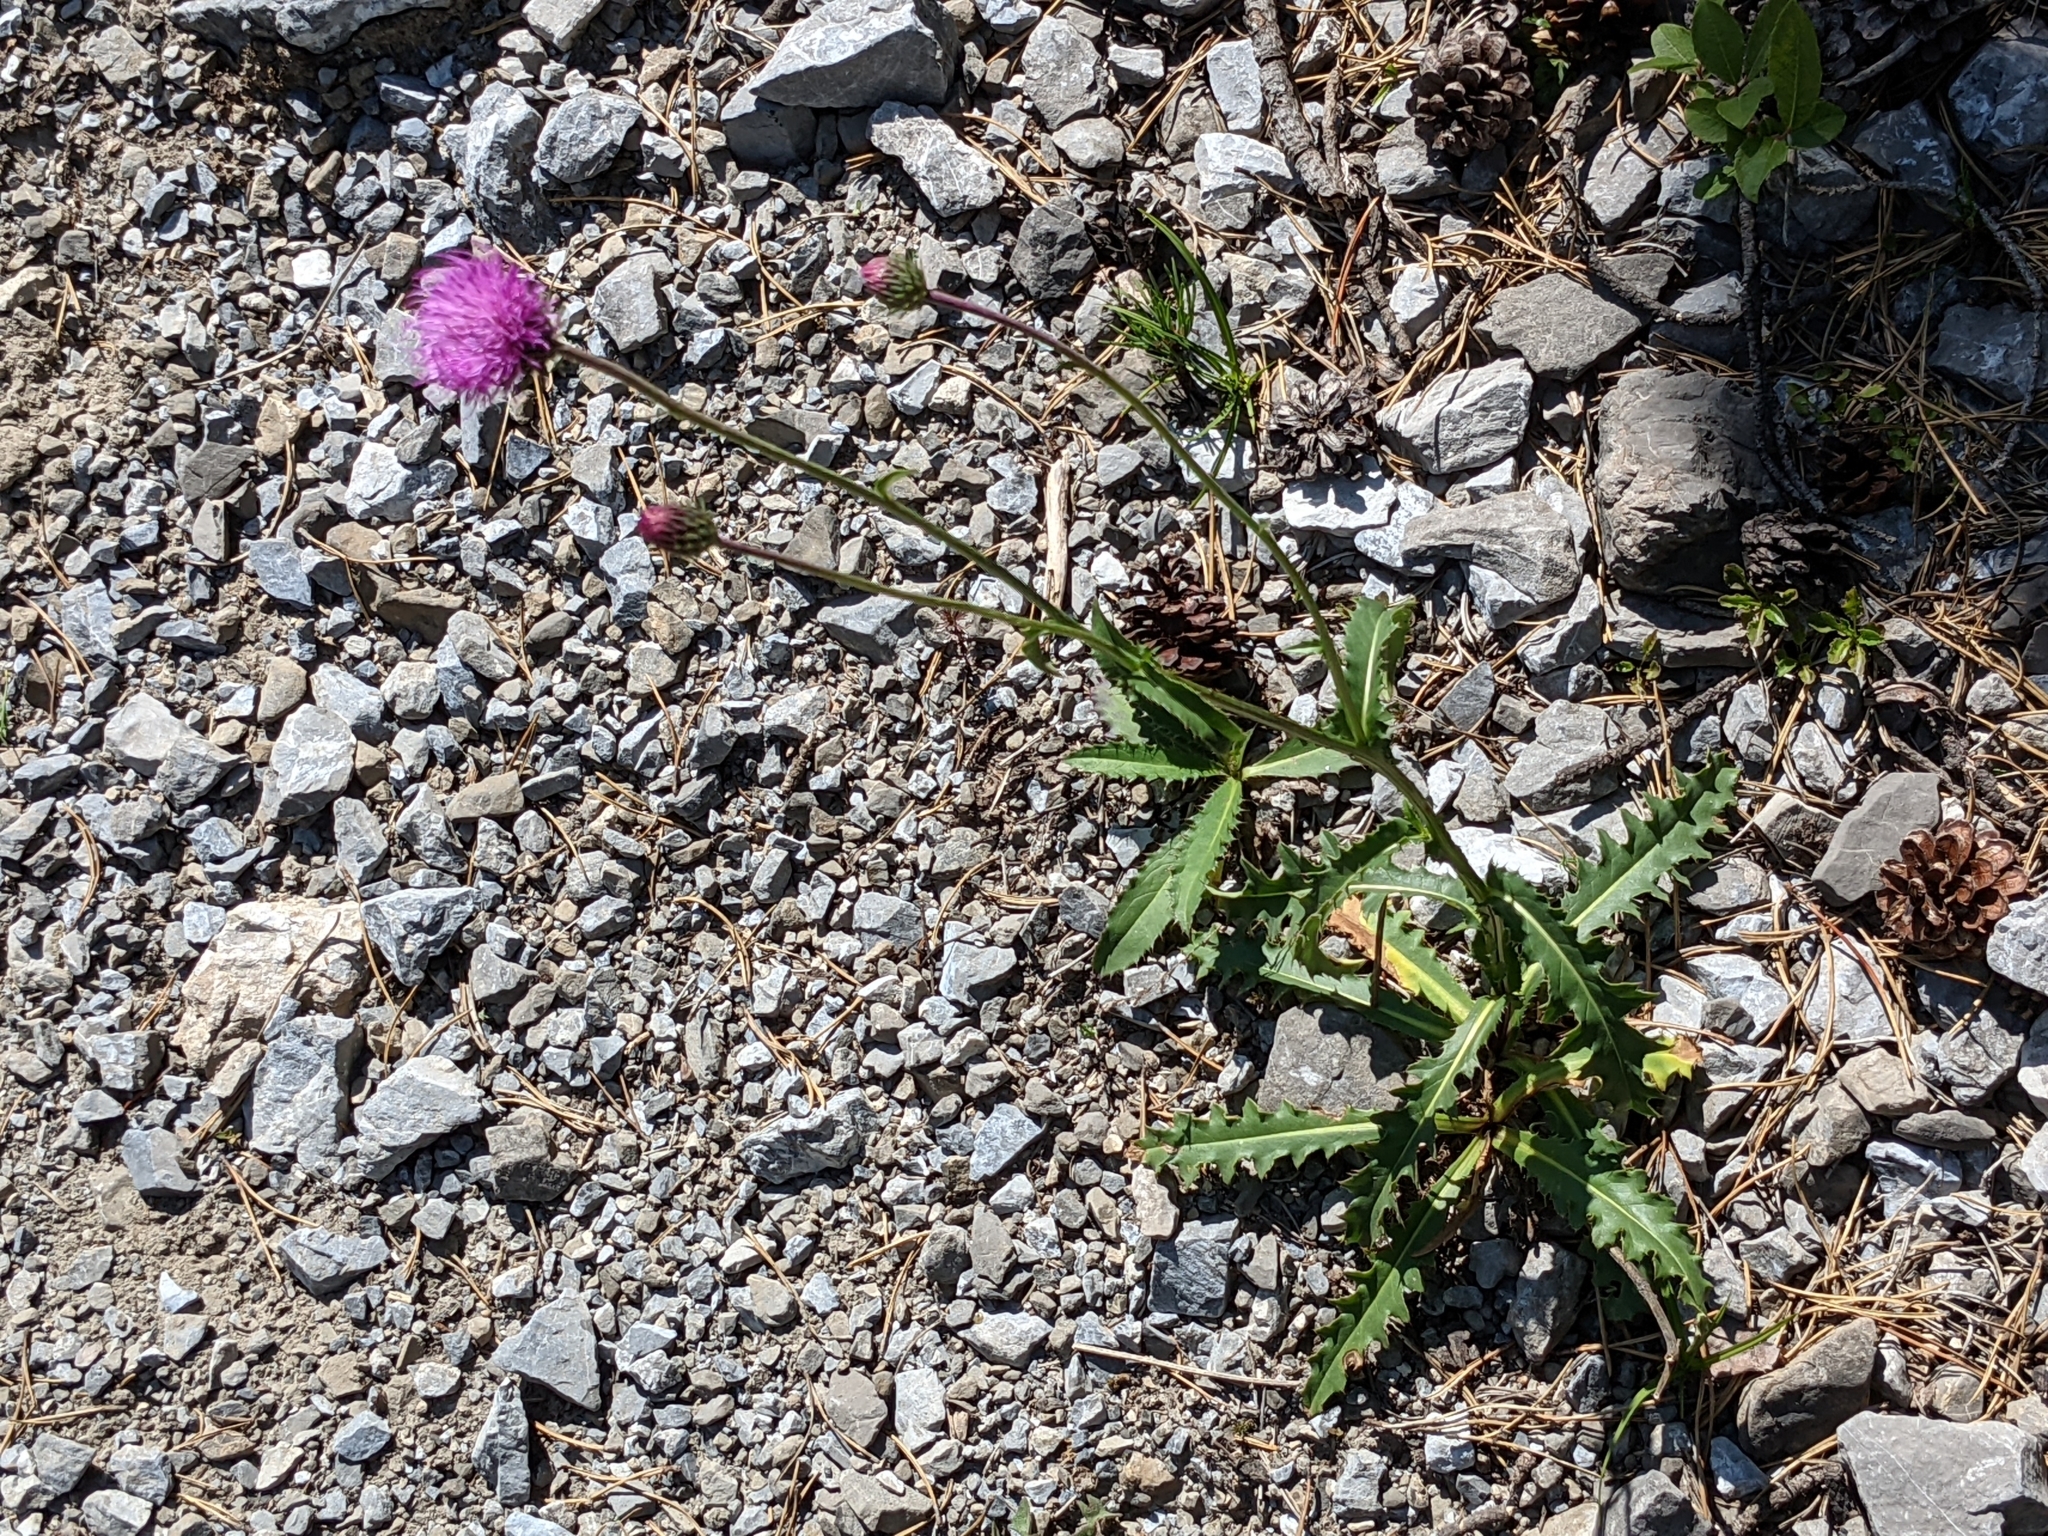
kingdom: Plantae
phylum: Tracheophyta
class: Magnoliopsida
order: Asterales
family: Asteraceae
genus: Carduus
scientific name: Carduus defloratus
